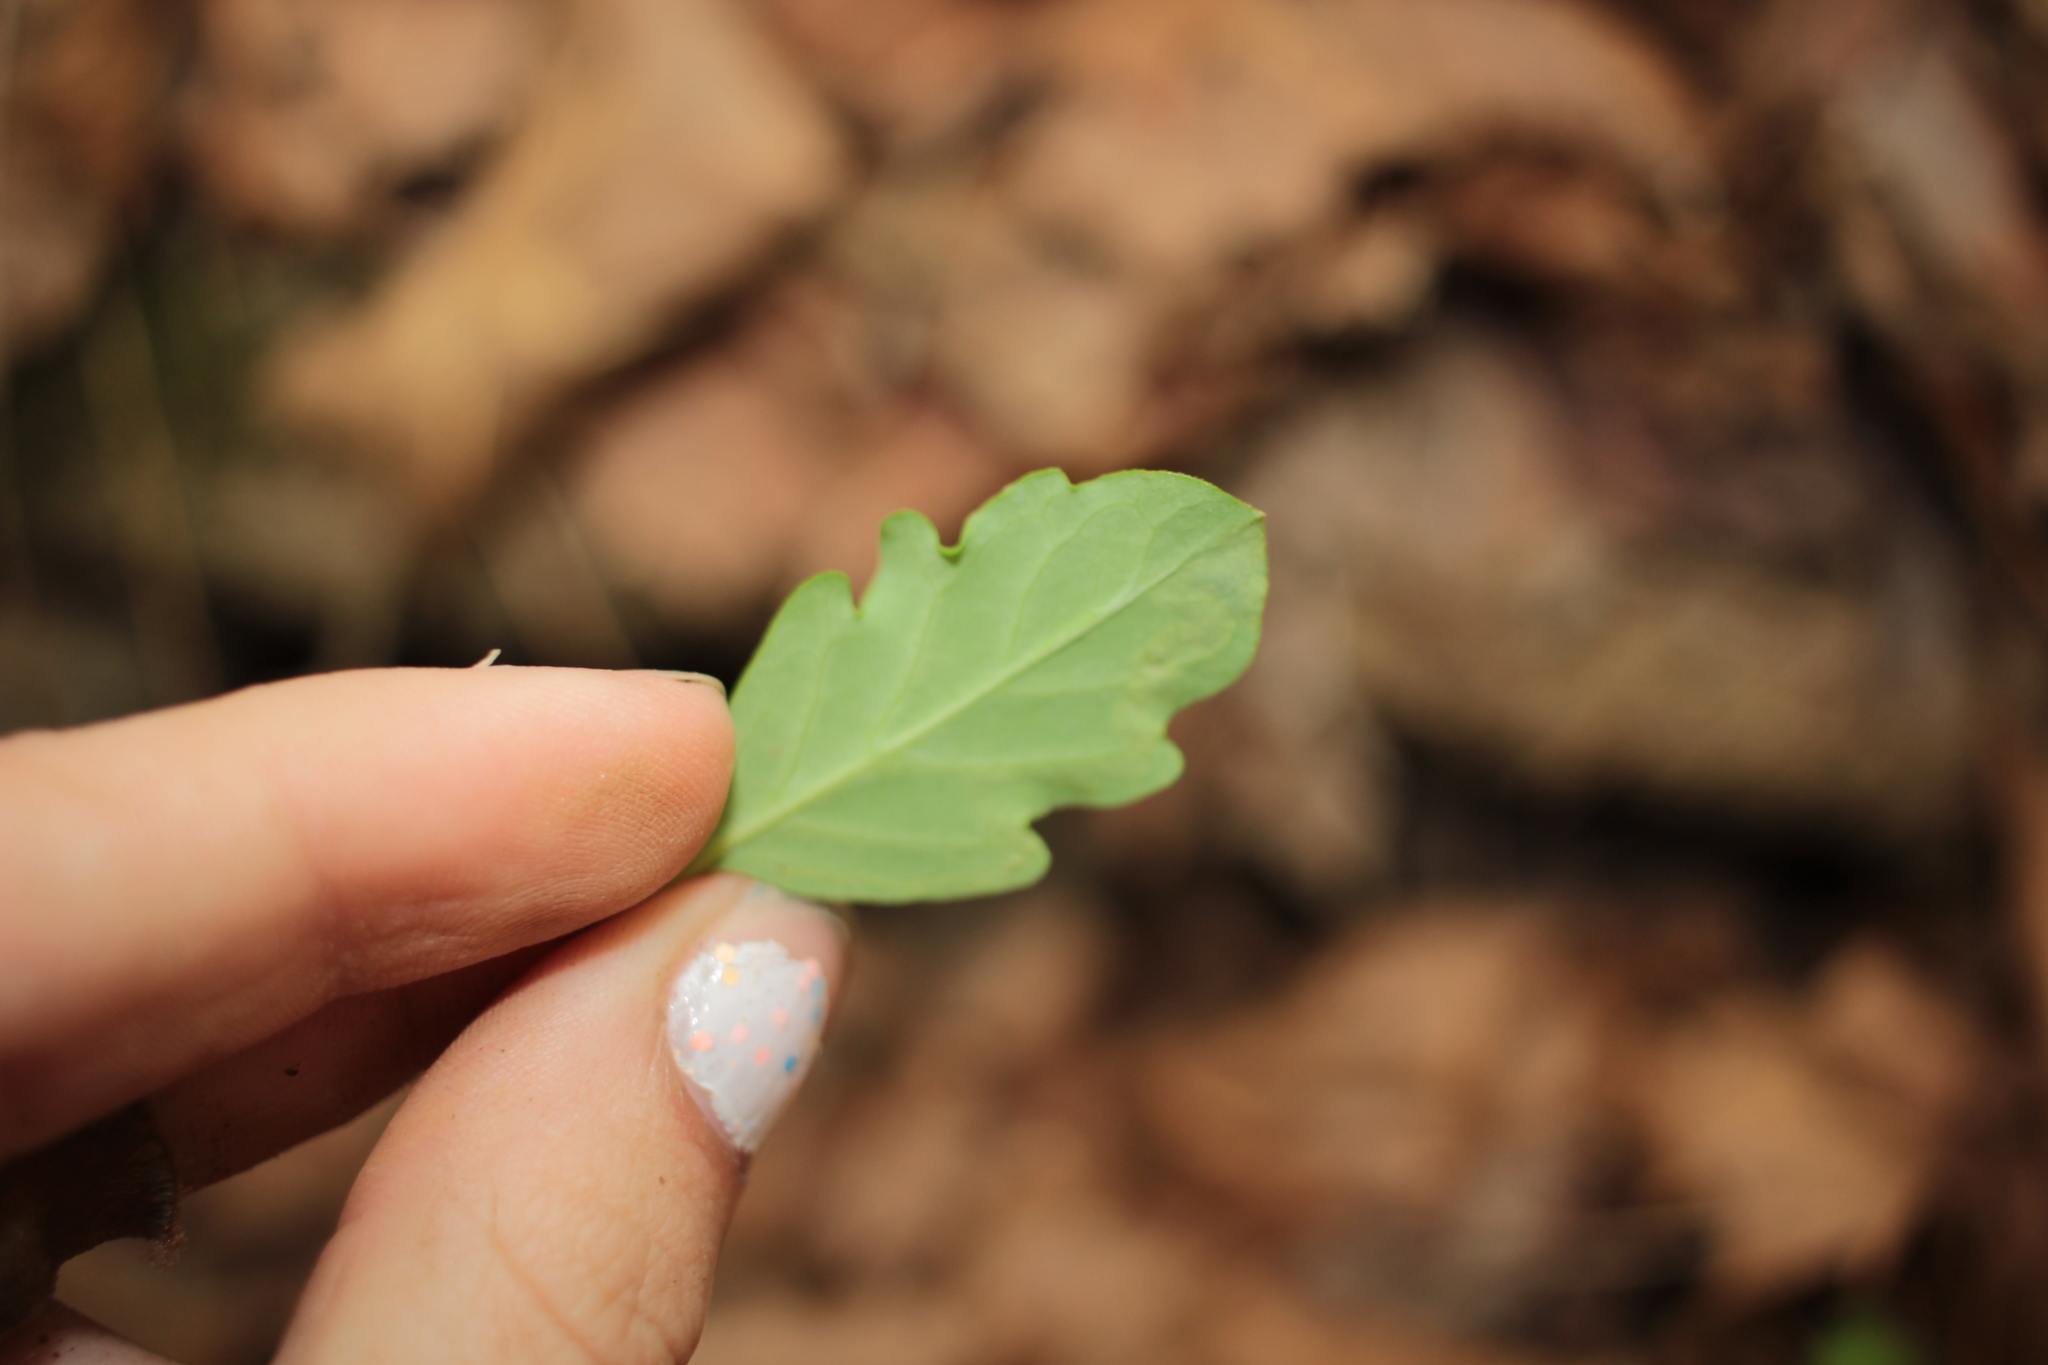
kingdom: Animalia
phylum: Arthropoda
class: Insecta
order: Diptera
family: Agromyzidae
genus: Aulagromyza
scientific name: Aulagromyza
